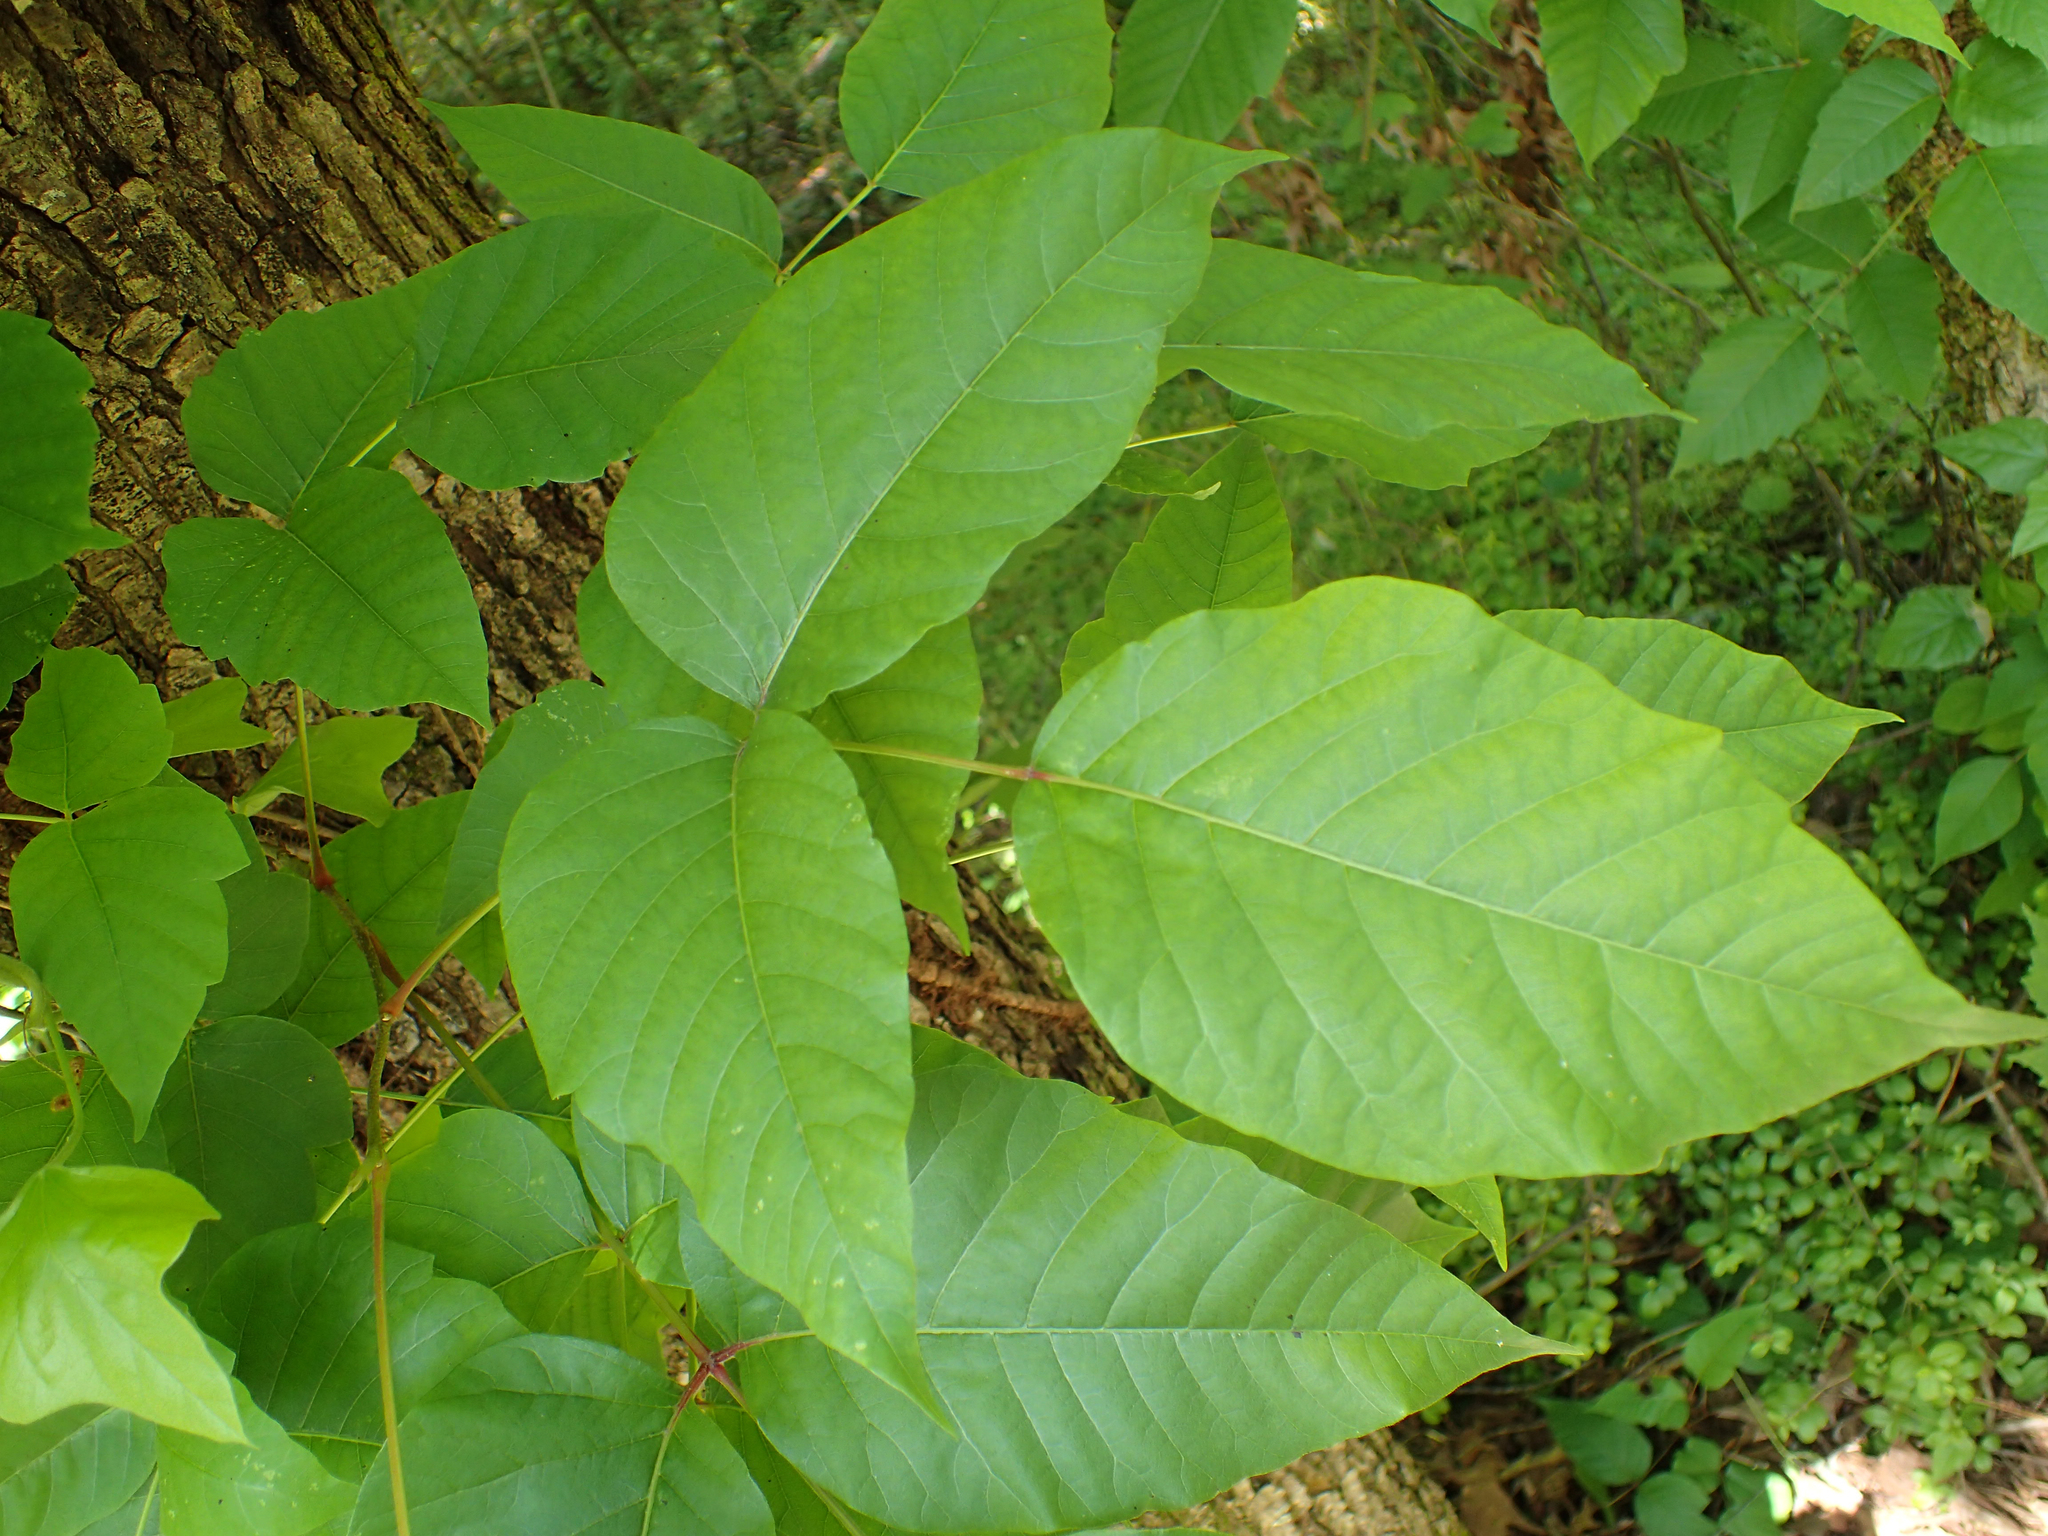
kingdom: Plantae
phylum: Tracheophyta
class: Magnoliopsida
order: Sapindales
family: Anacardiaceae
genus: Toxicodendron
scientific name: Toxicodendron radicans
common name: Poison ivy
